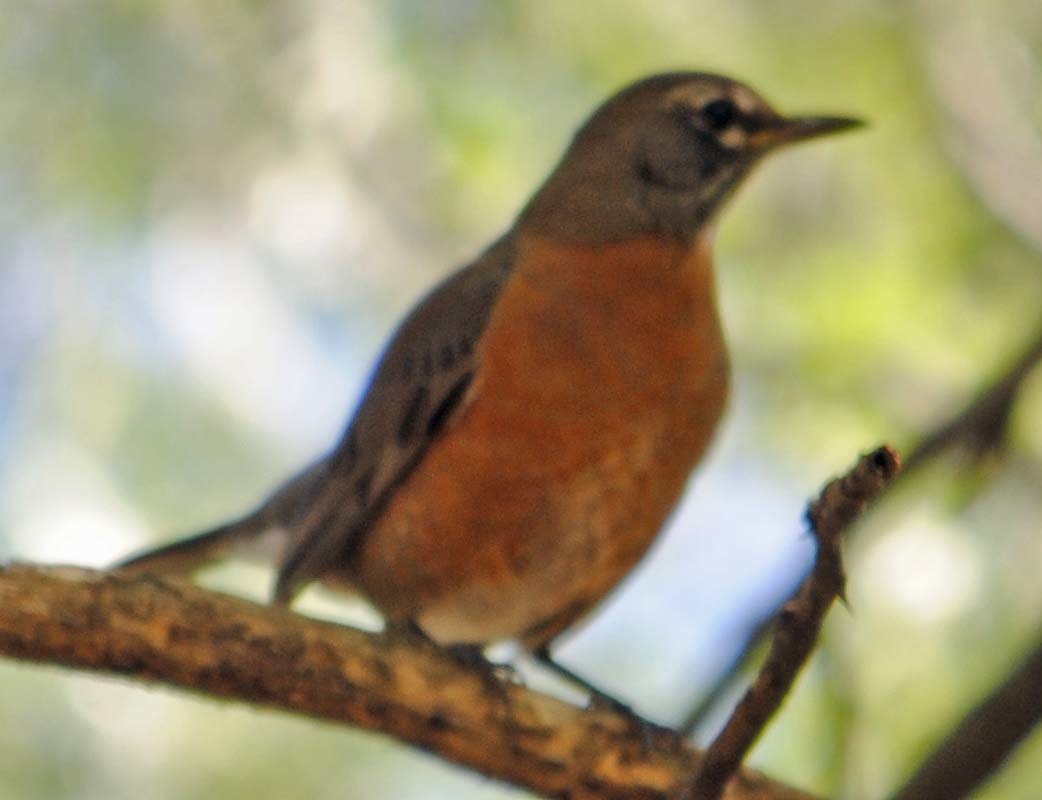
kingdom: Animalia
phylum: Chordata
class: Aves
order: Passeriformes
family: Turdidae
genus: Turdus
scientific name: Turdus migratorius
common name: American robin
